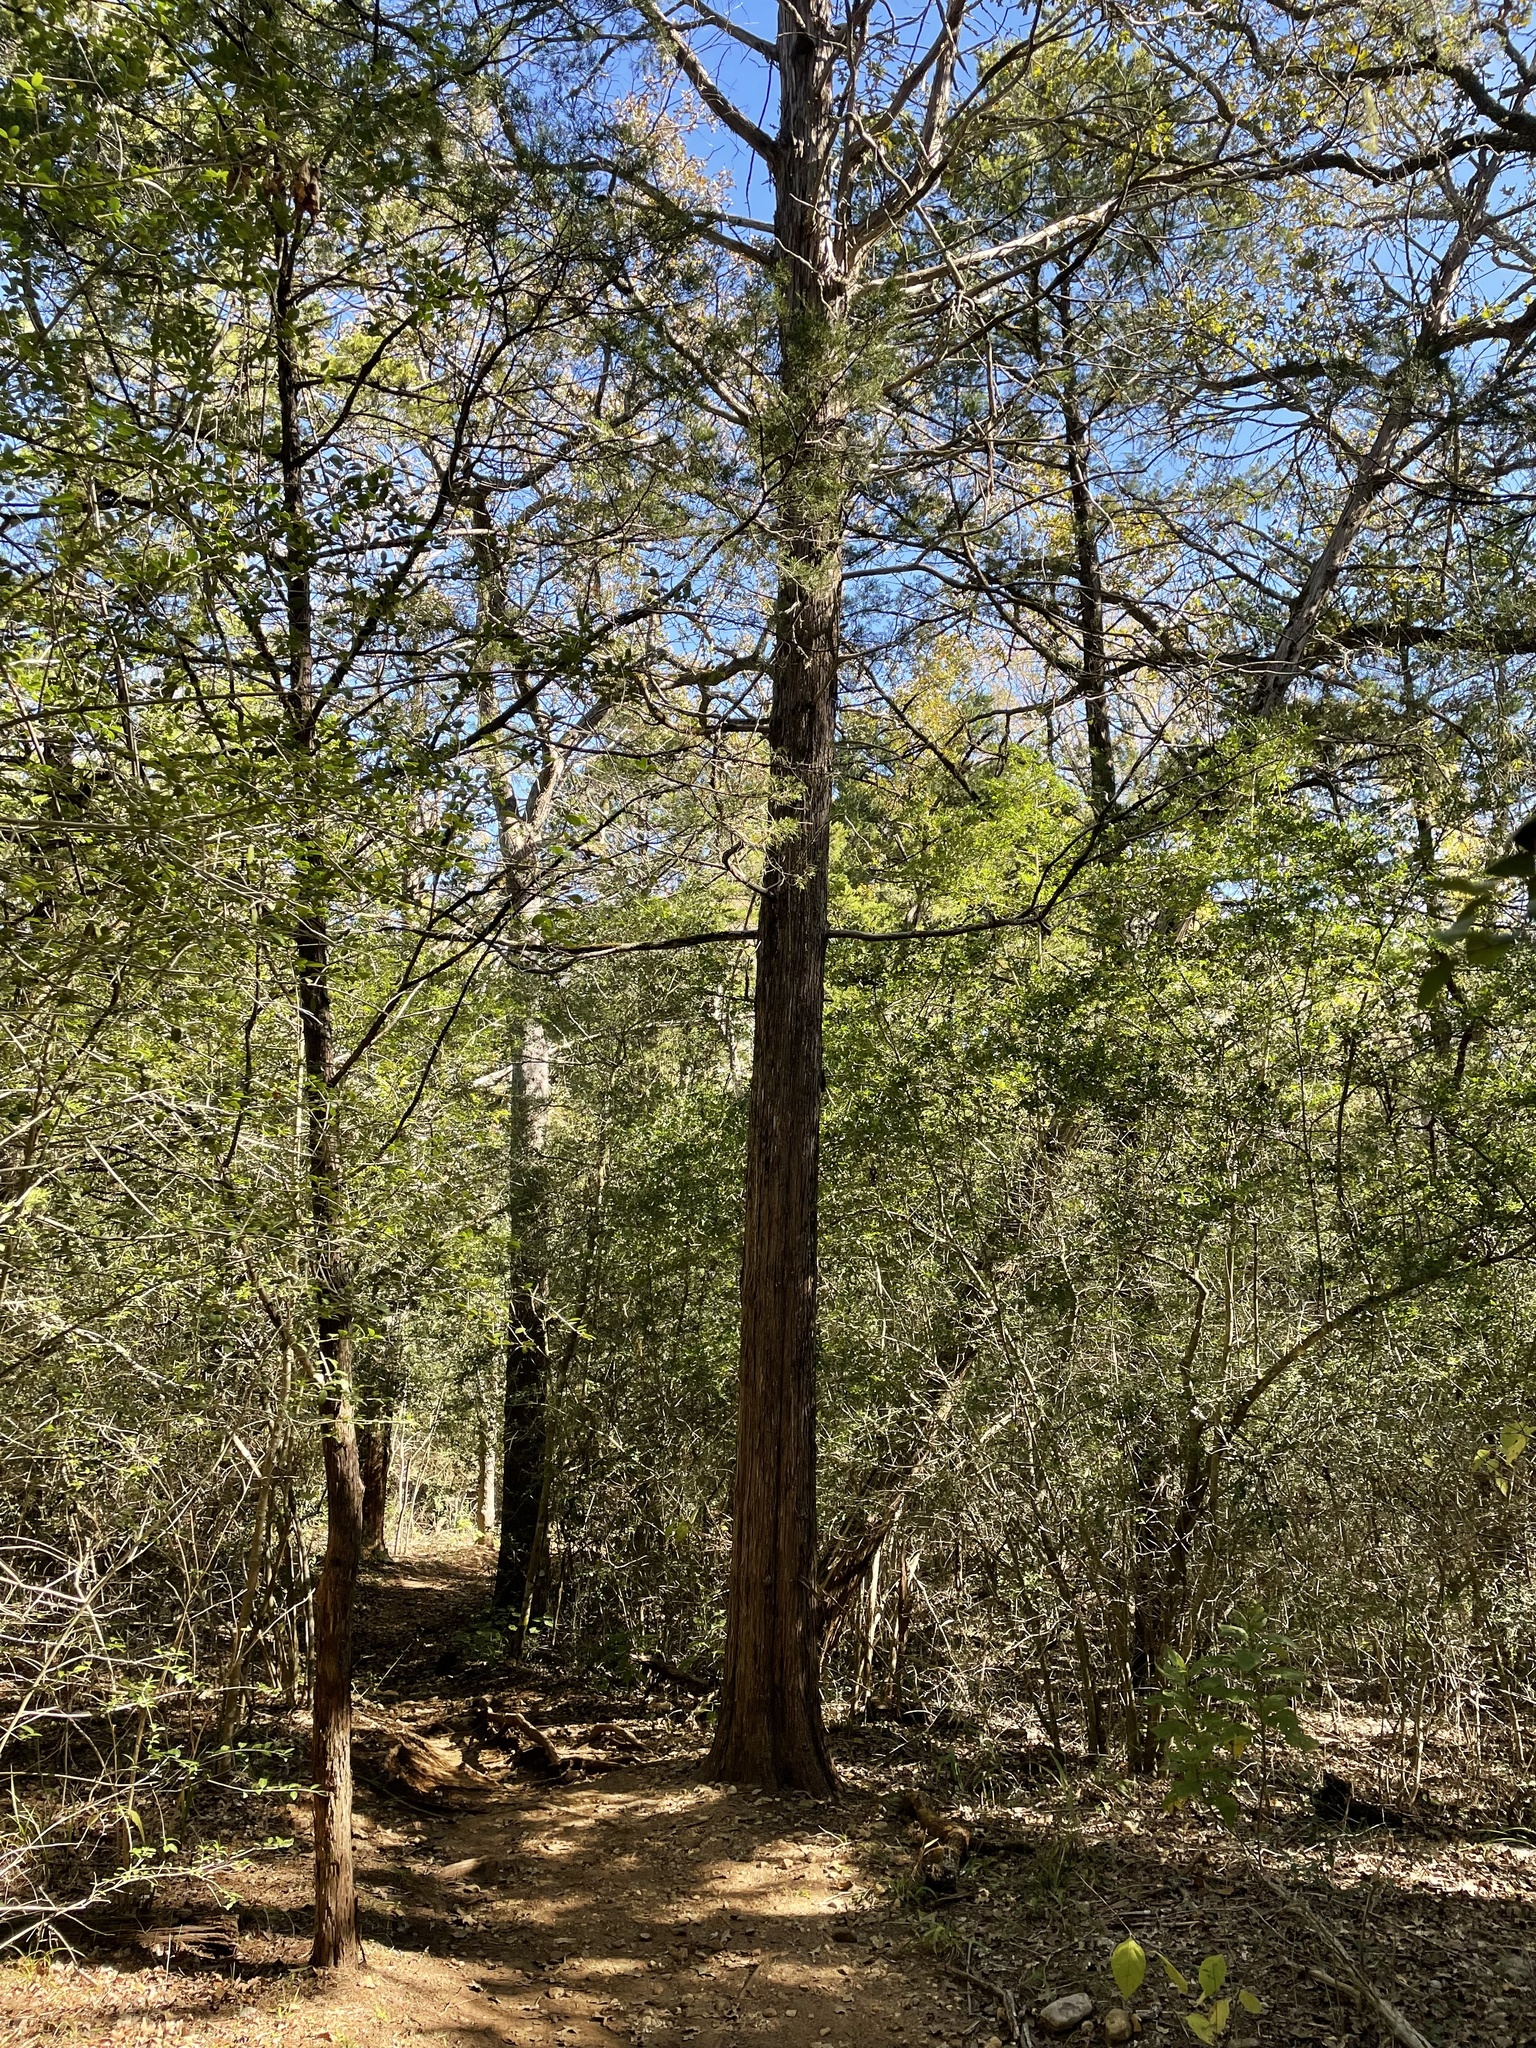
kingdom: Plantae
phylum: Tracheophyta
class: Pinopsida
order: Pinales
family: Cupressaceae
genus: Juniperus
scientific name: Juniperus virginiana
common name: Red juniper
